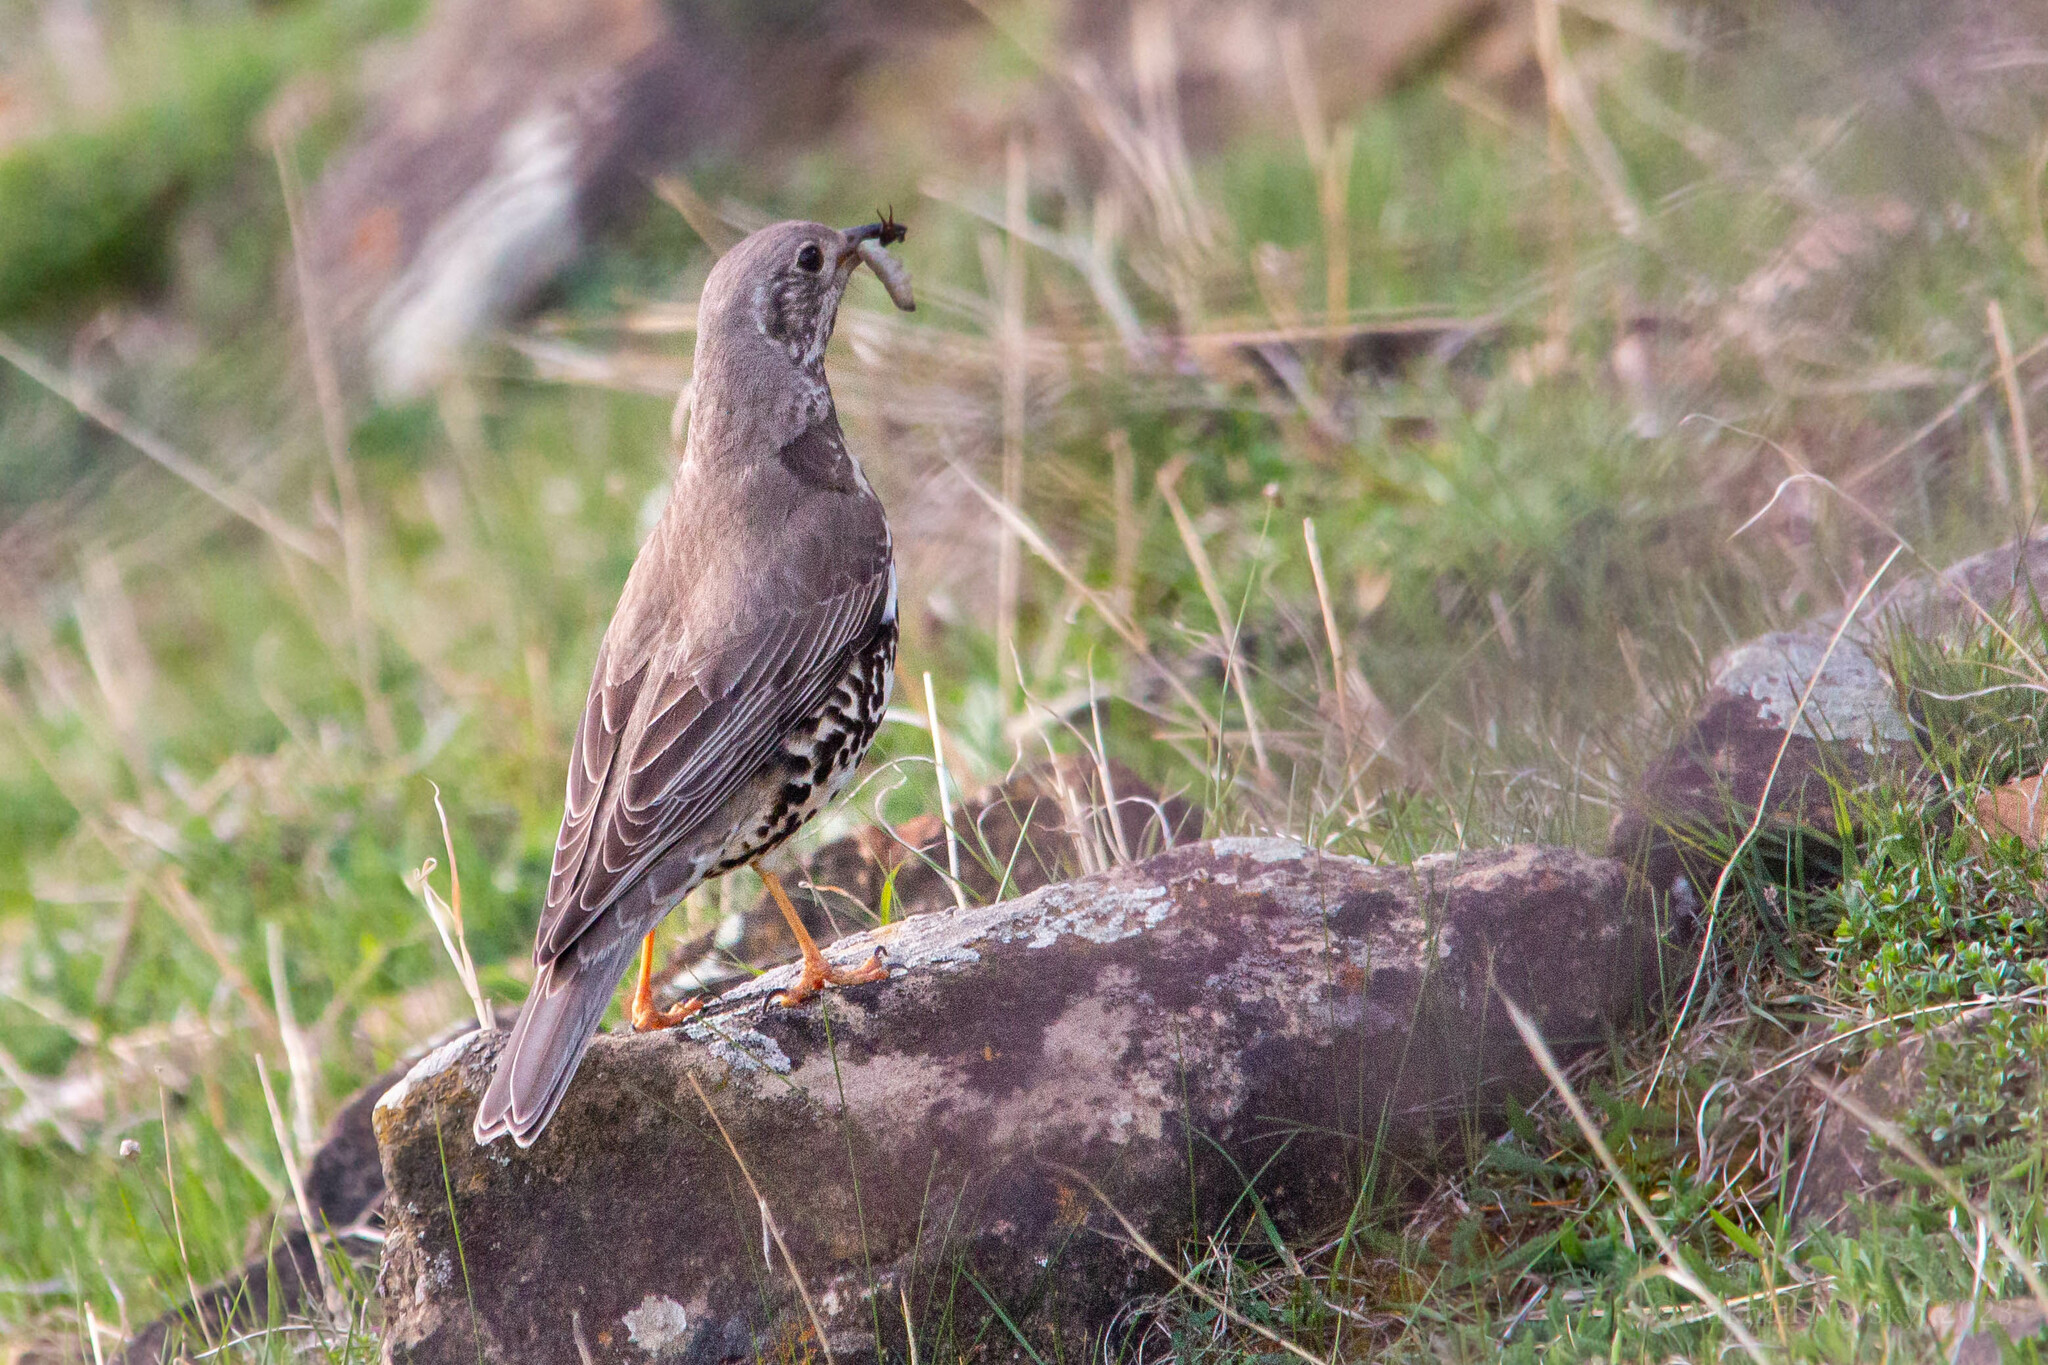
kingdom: Animalia
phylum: Chordata
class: Aves
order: Passeriformes
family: Turdidae
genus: Turdus
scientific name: Turdus viscivorus
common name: Mistle thrush
